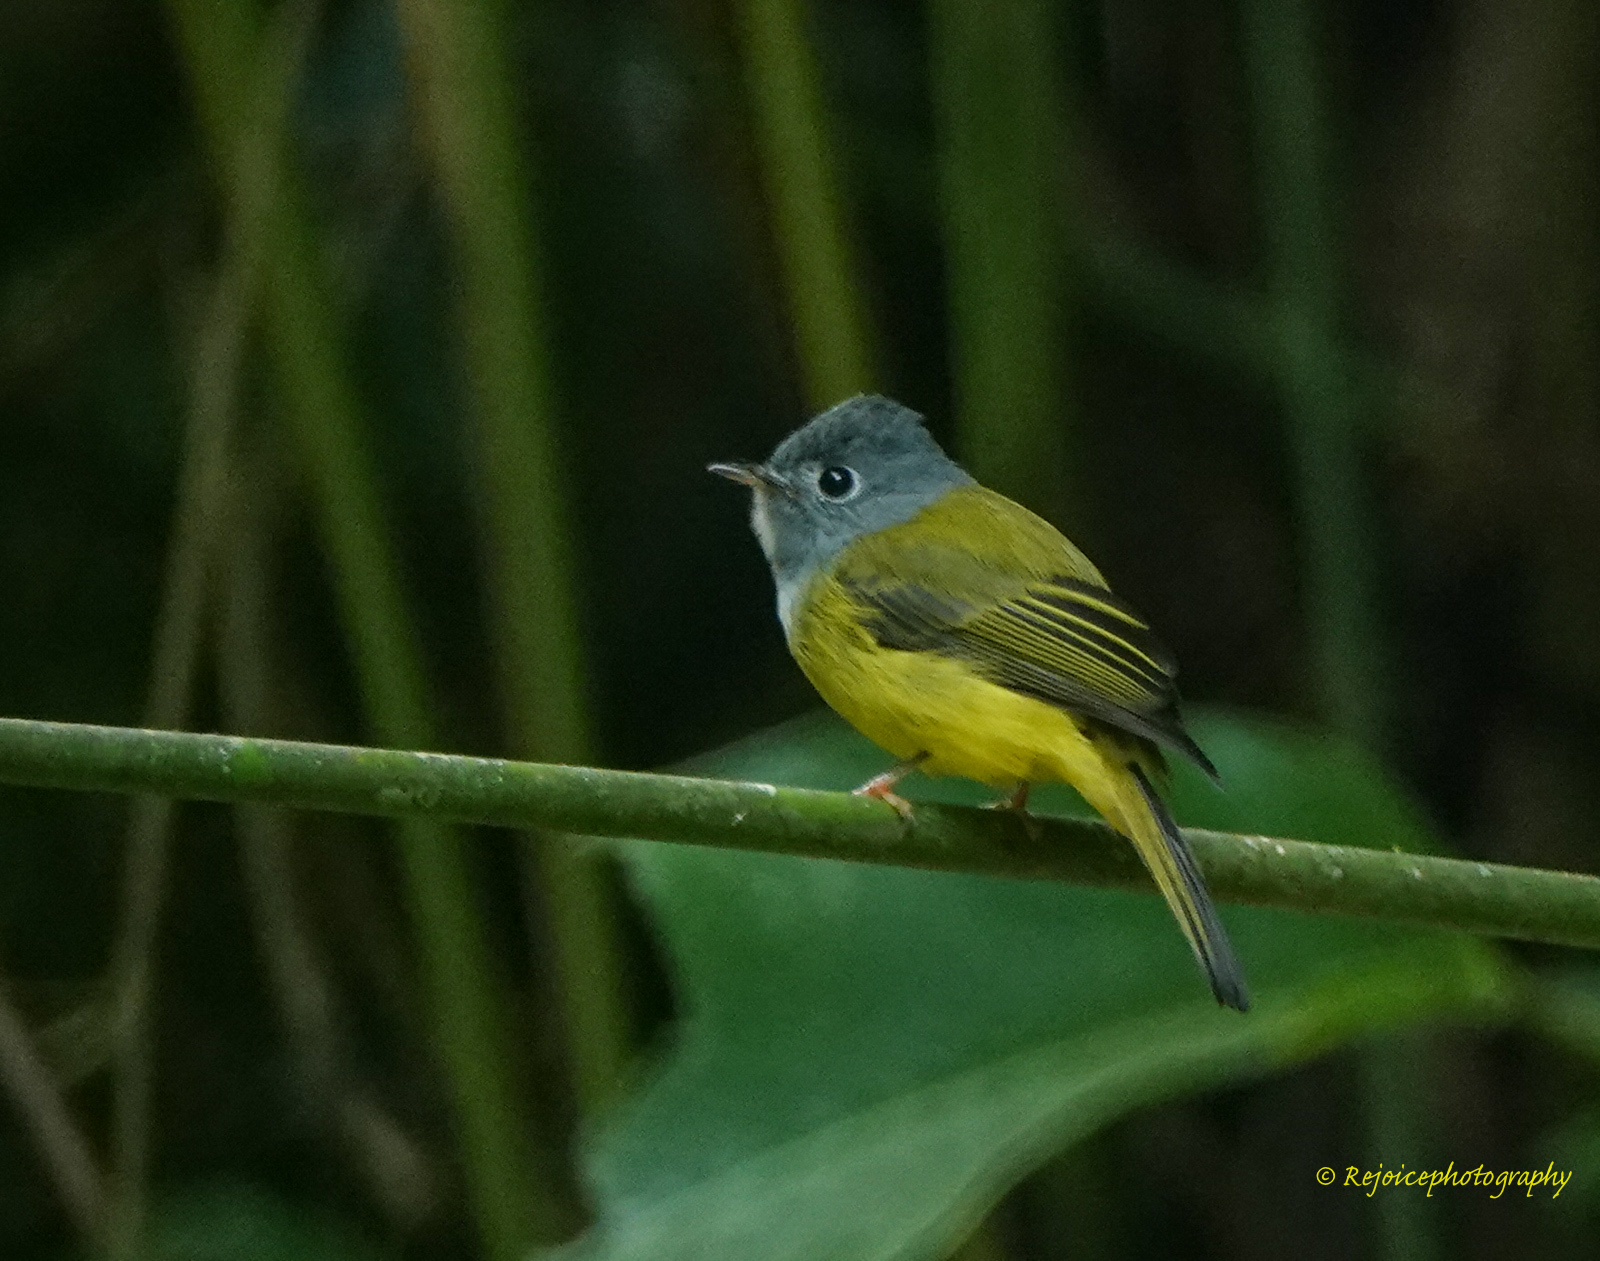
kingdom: Animalia
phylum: Chordata
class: Aves
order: Passeriformes
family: Stenostiridae
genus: Culicicapa
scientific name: Culicicapa ceylonensis
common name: Grey-headed canary-flycatcher
